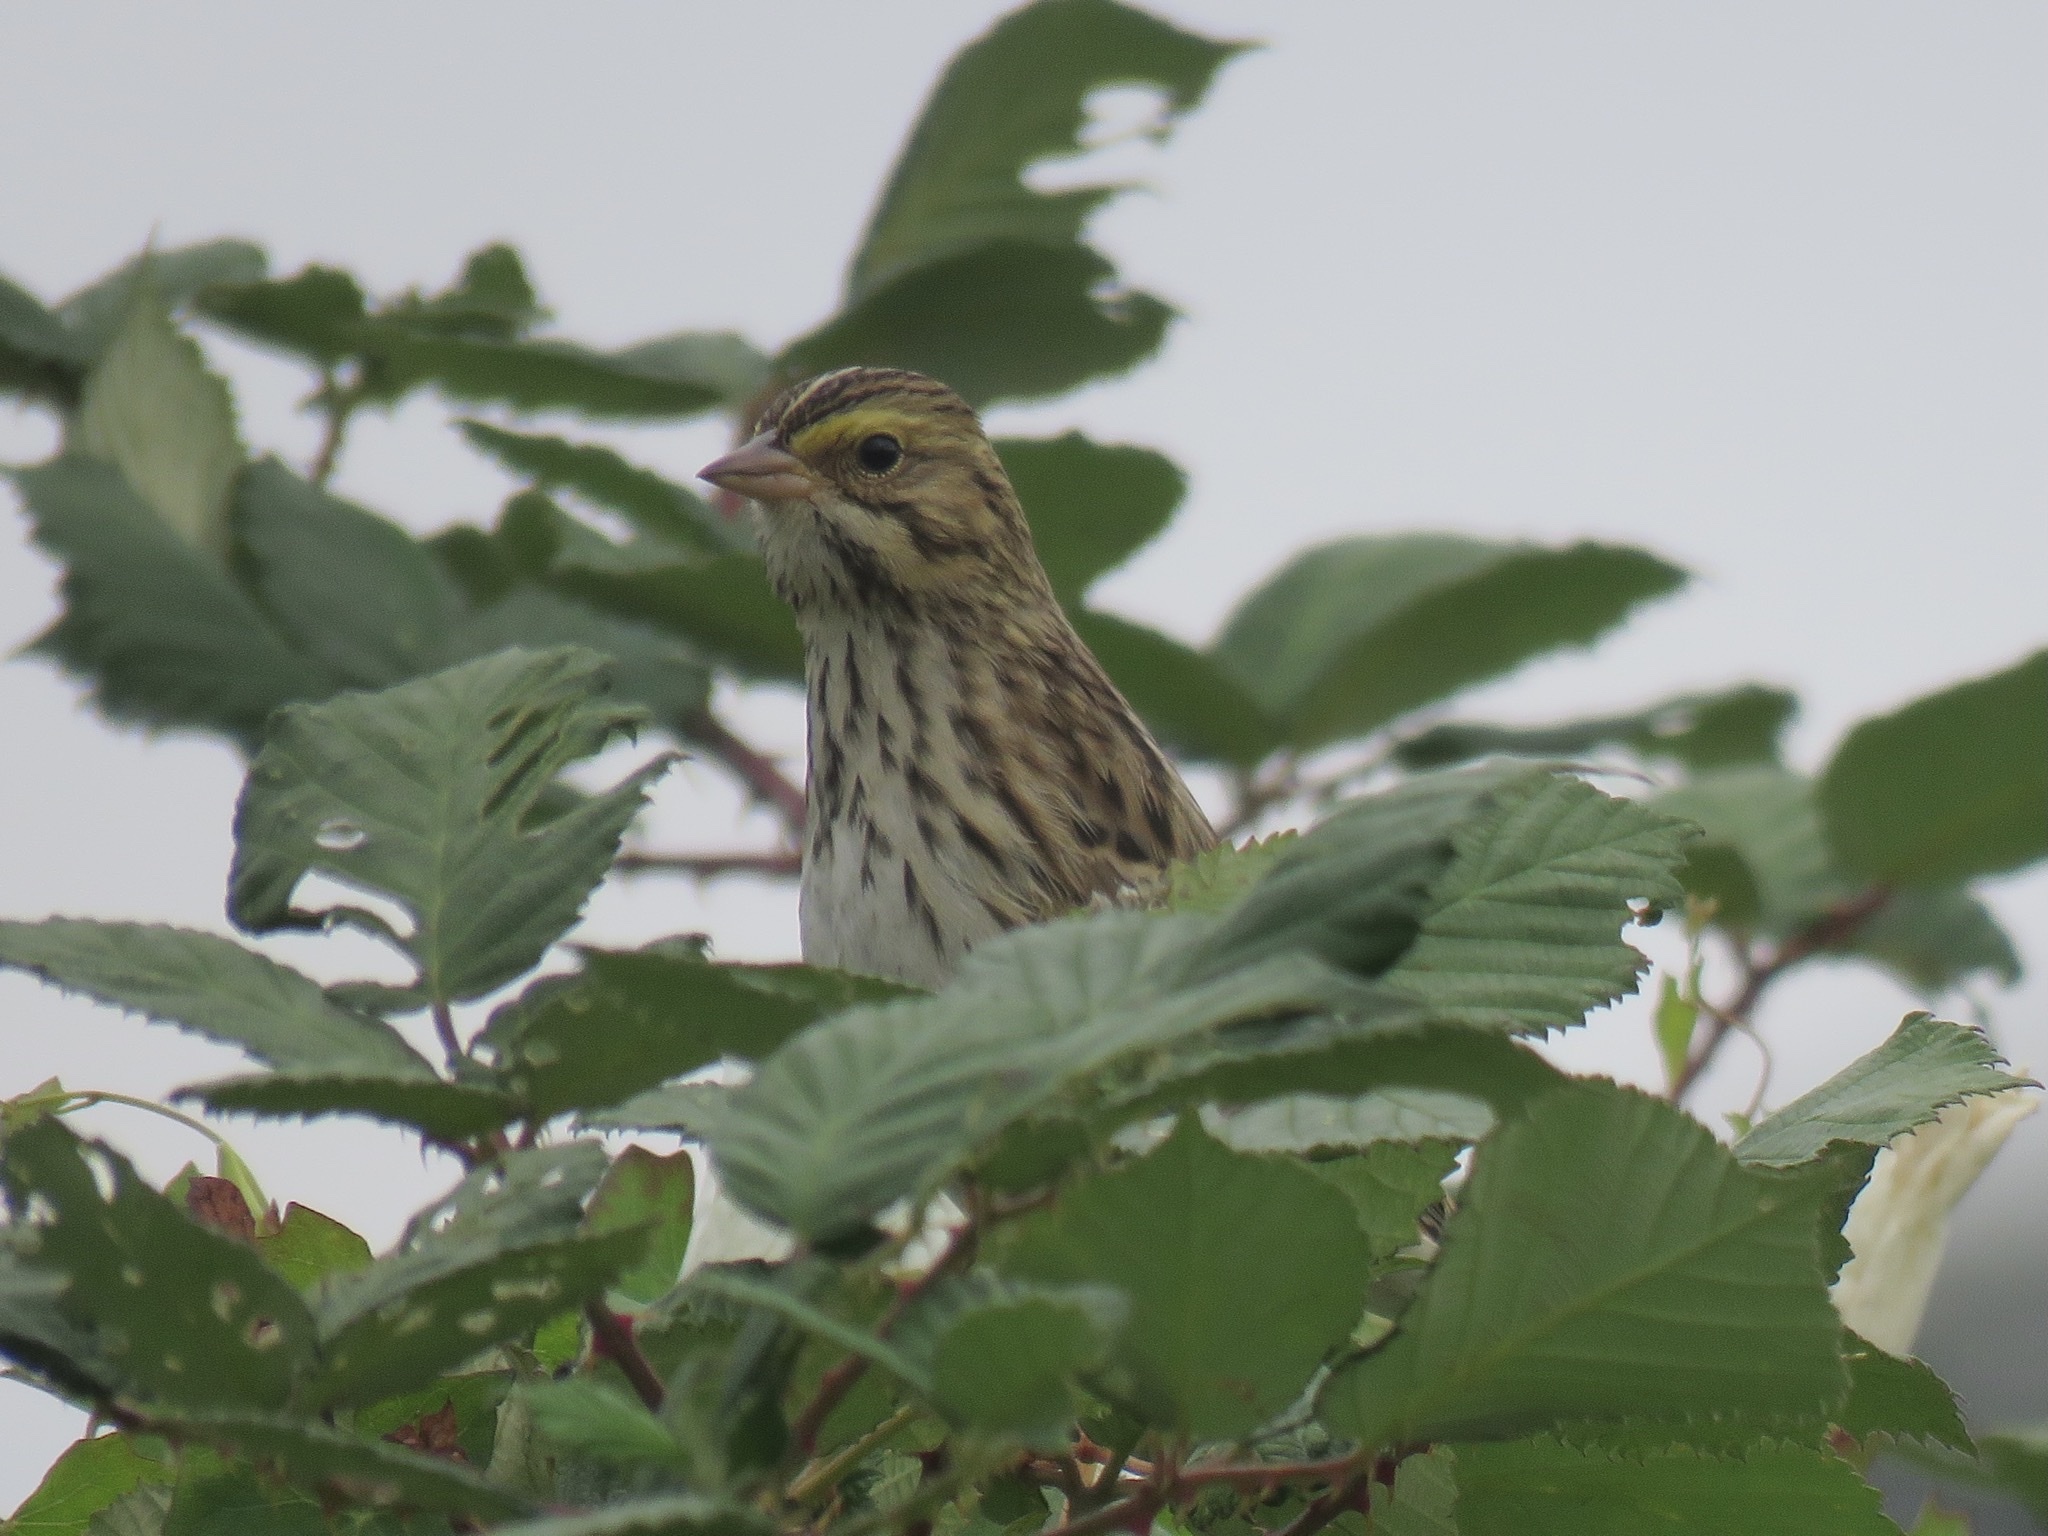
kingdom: Animalia
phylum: Chordata
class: Aves
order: Passeriformes
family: Passerellidae
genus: Passerculus
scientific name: Passerculus sandwichensis
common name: Savannah sparrow
